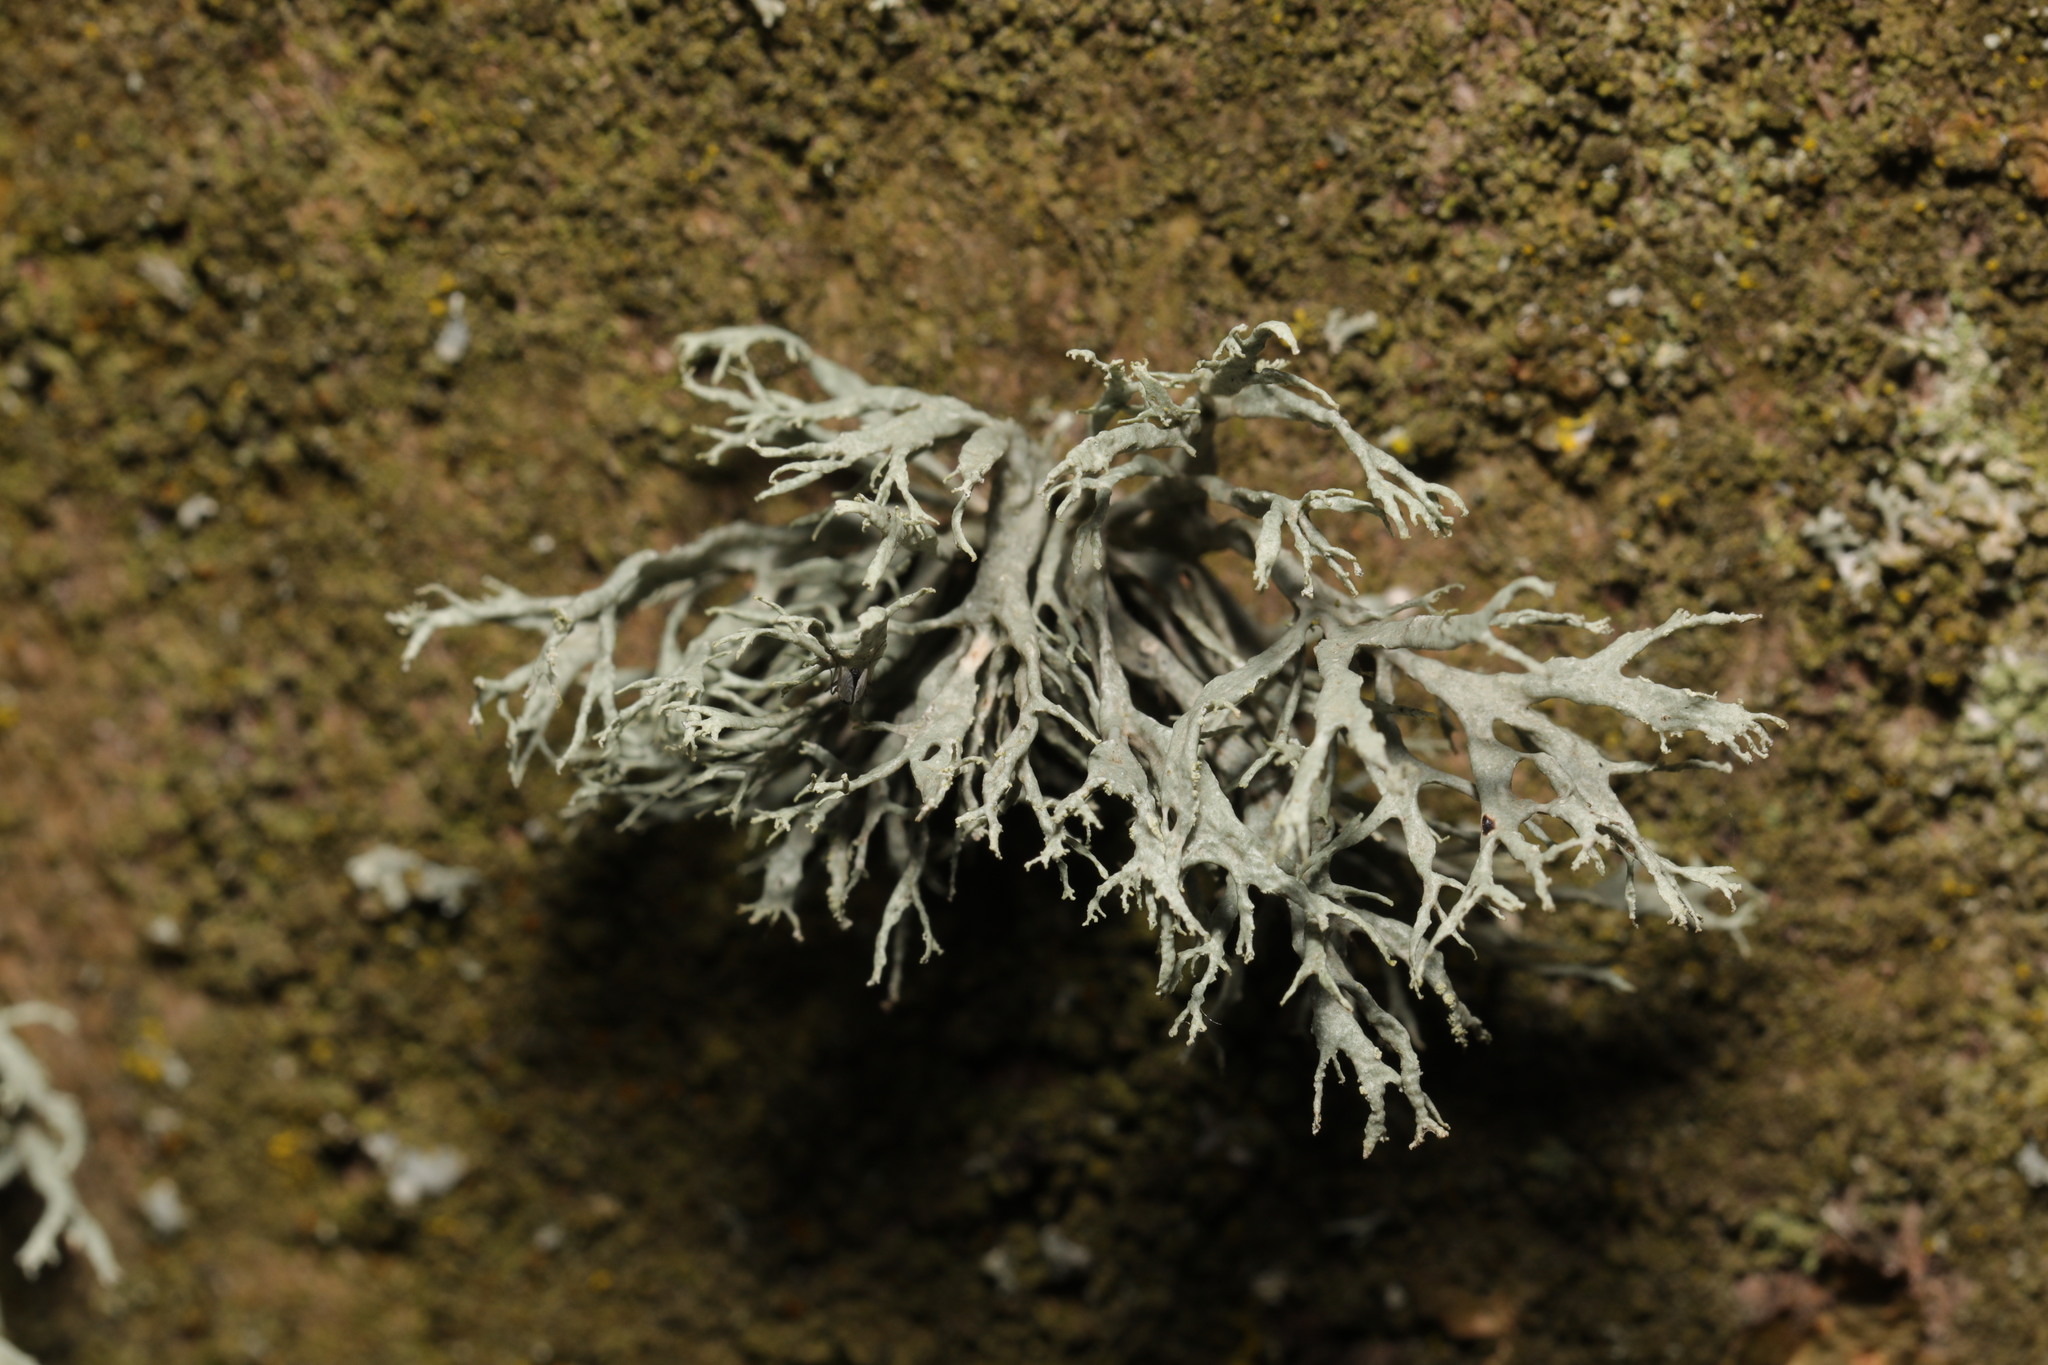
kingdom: Fungi
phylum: Ascomycota
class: Lecanoromycetes
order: Lecanorales
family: Ramalinaceae
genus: Ramalina
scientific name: Ramalina farinacea
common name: Farinose cartilage lichen
